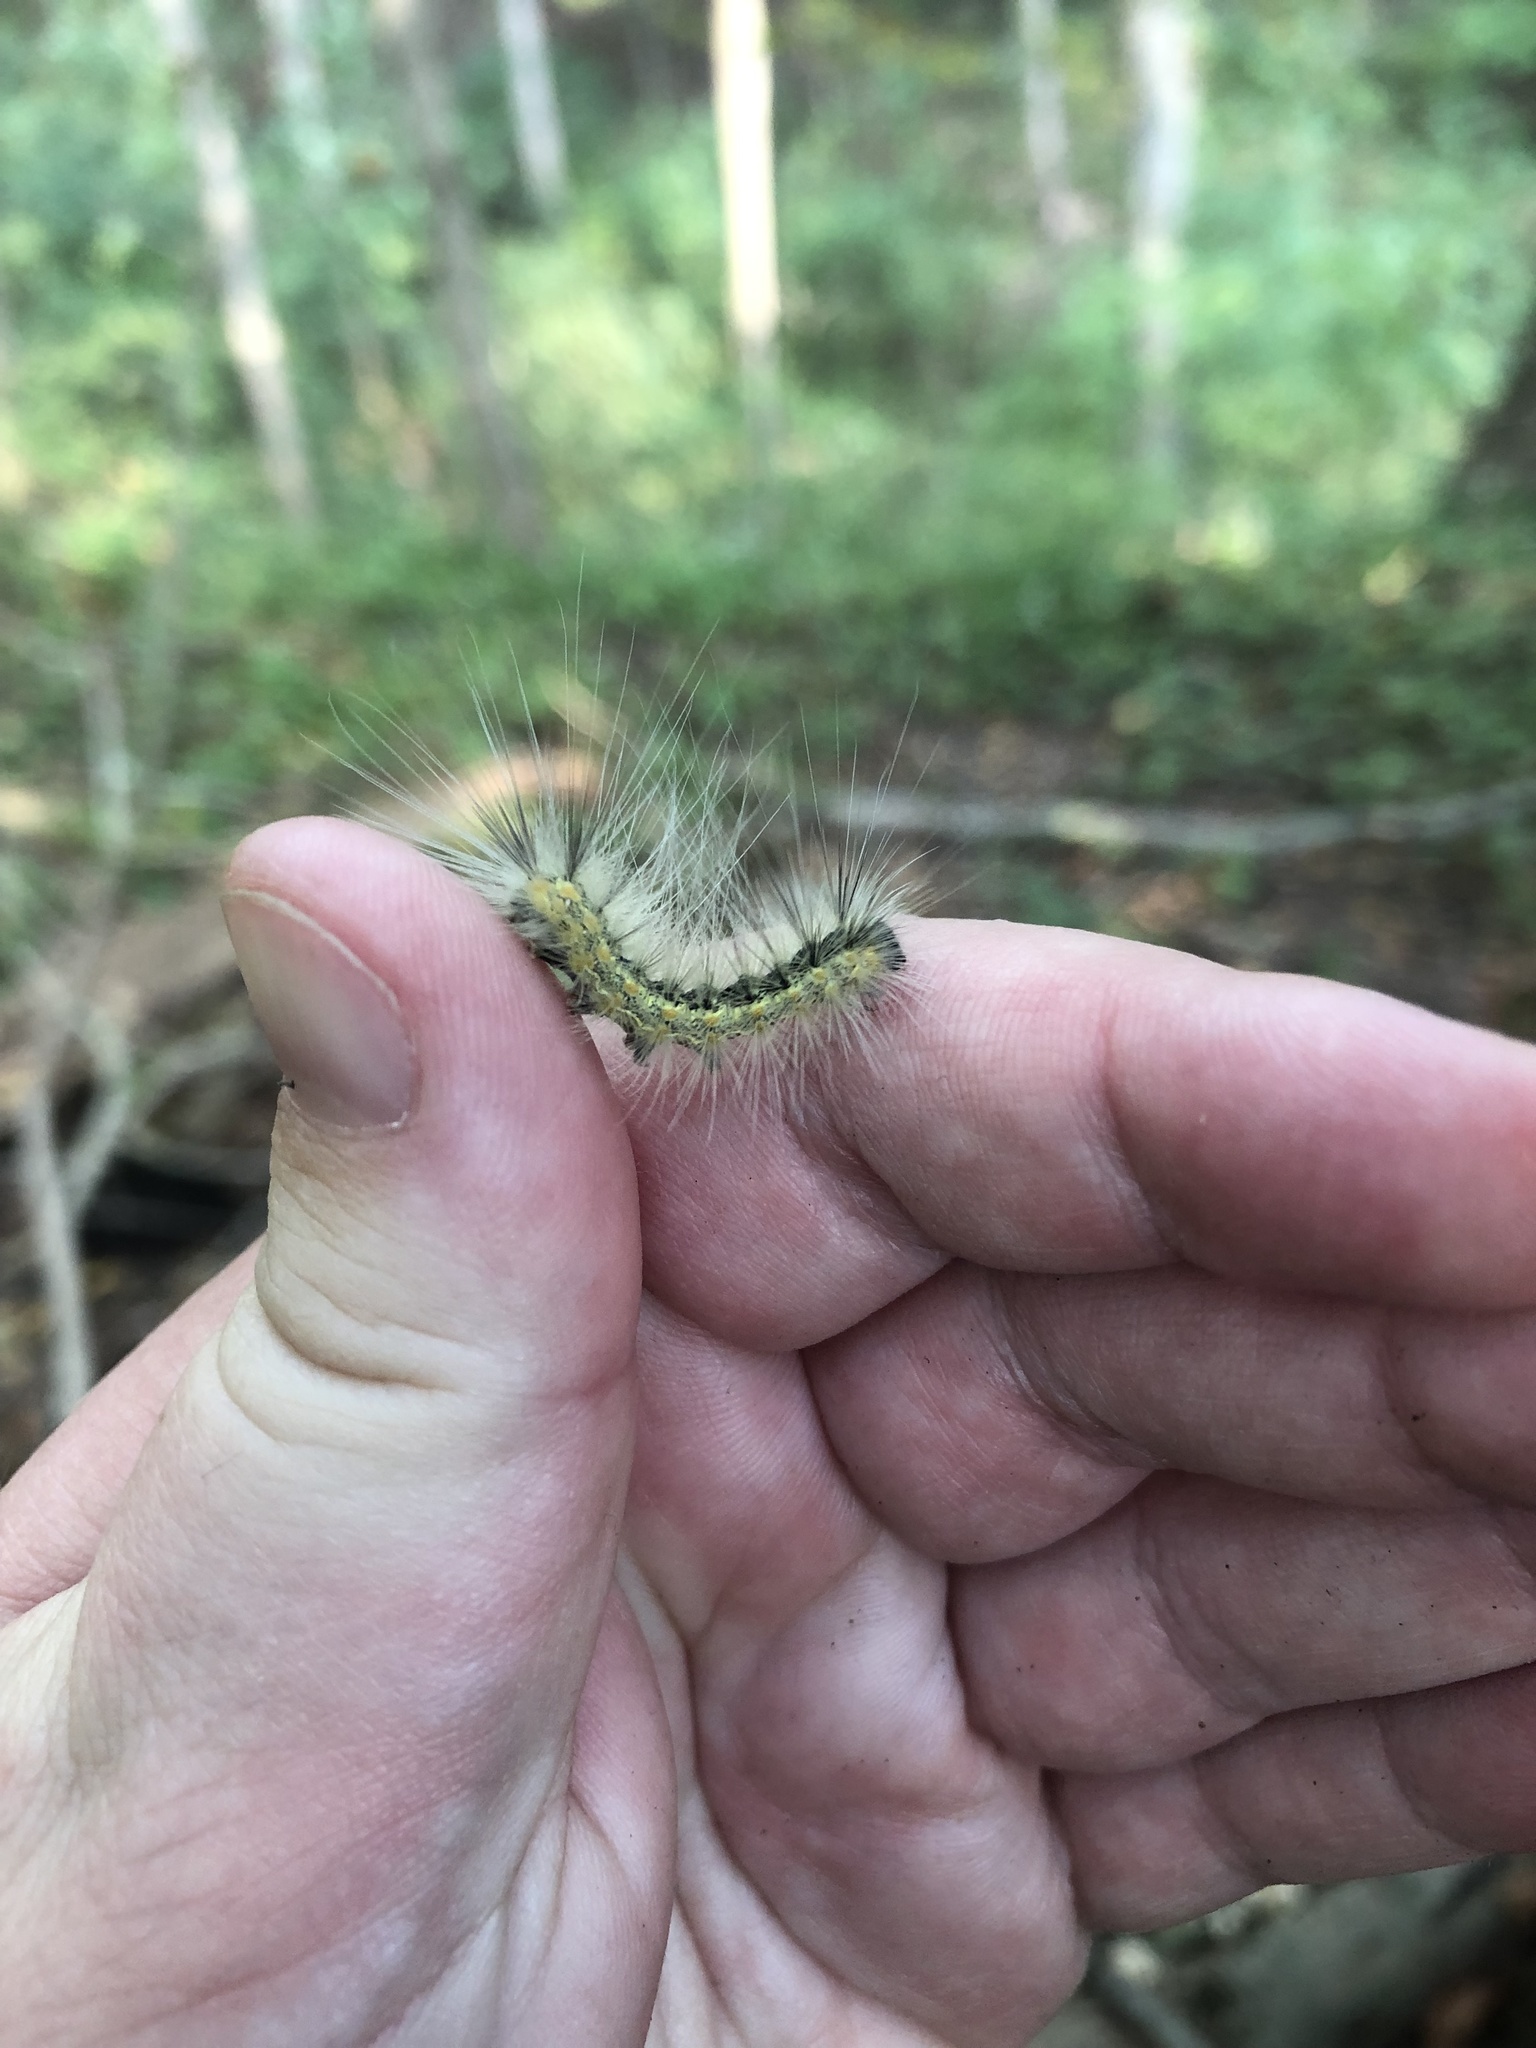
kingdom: Animalia
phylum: Arthropoda
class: Insecta
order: Lepidoptera
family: Erebidae
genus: Hyphantria
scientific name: Hyphantria cunea
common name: American white moth
